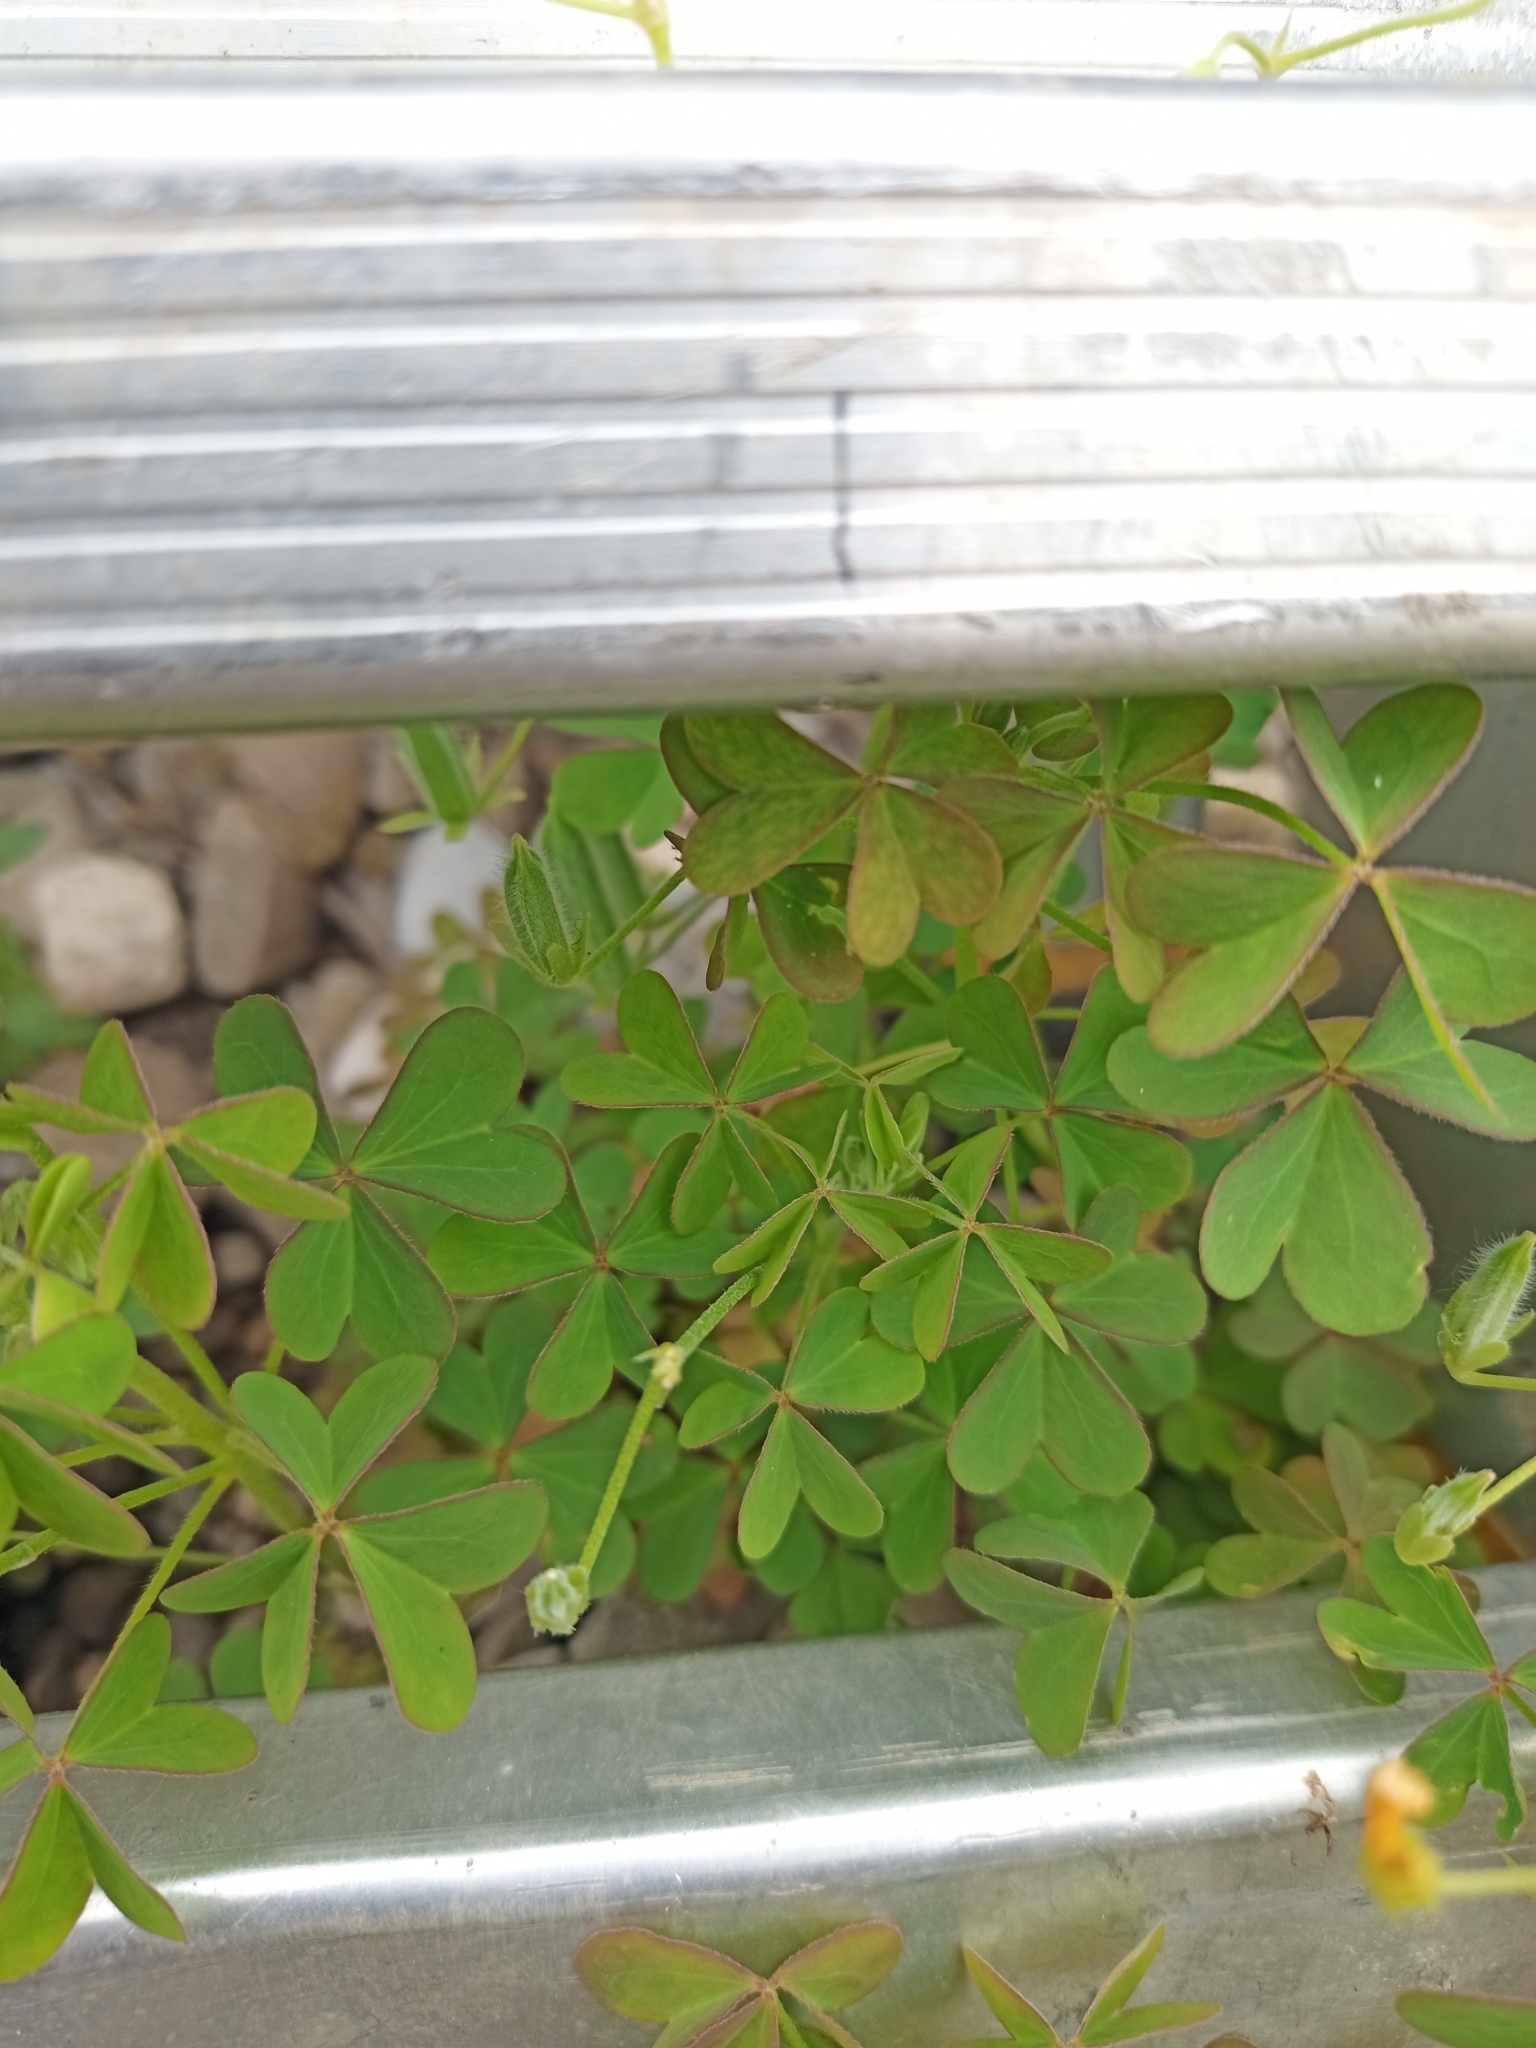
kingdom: Plantae
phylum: Tracheophyta
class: Magnoliopsida
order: Oxalidales
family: Oxalidaceae
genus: Oxalis
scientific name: Oxalis corniculata
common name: Procumbent yellow-sorrel
